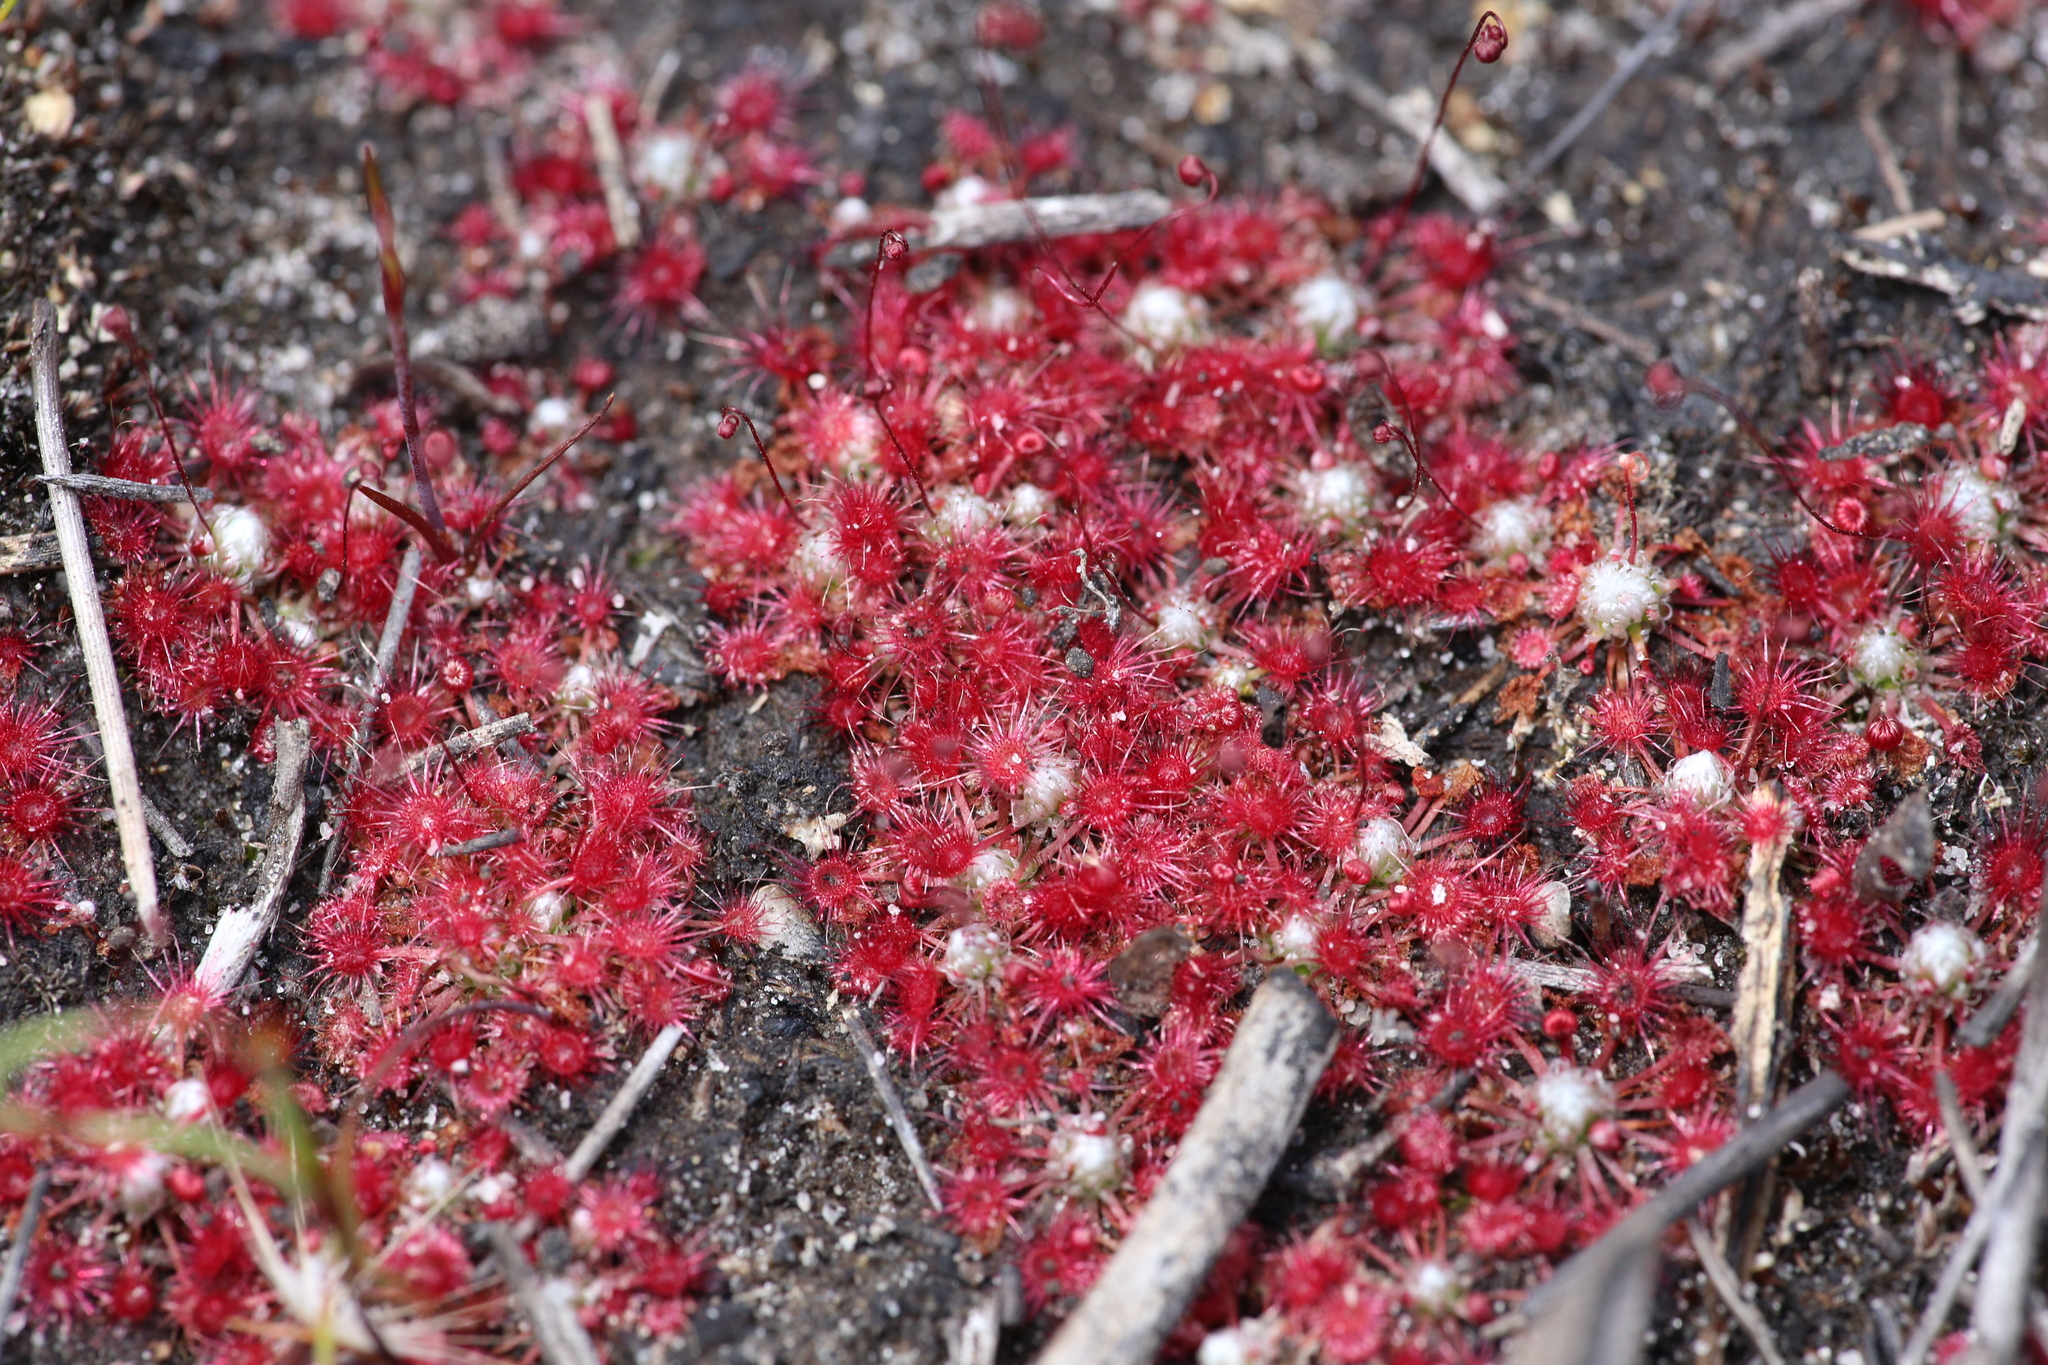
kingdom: Plantae
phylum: Tracheophyta
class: Magnoliopsida
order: Caryophyllales
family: Droseraceae
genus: Drosera
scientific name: Drosera occidentalis
